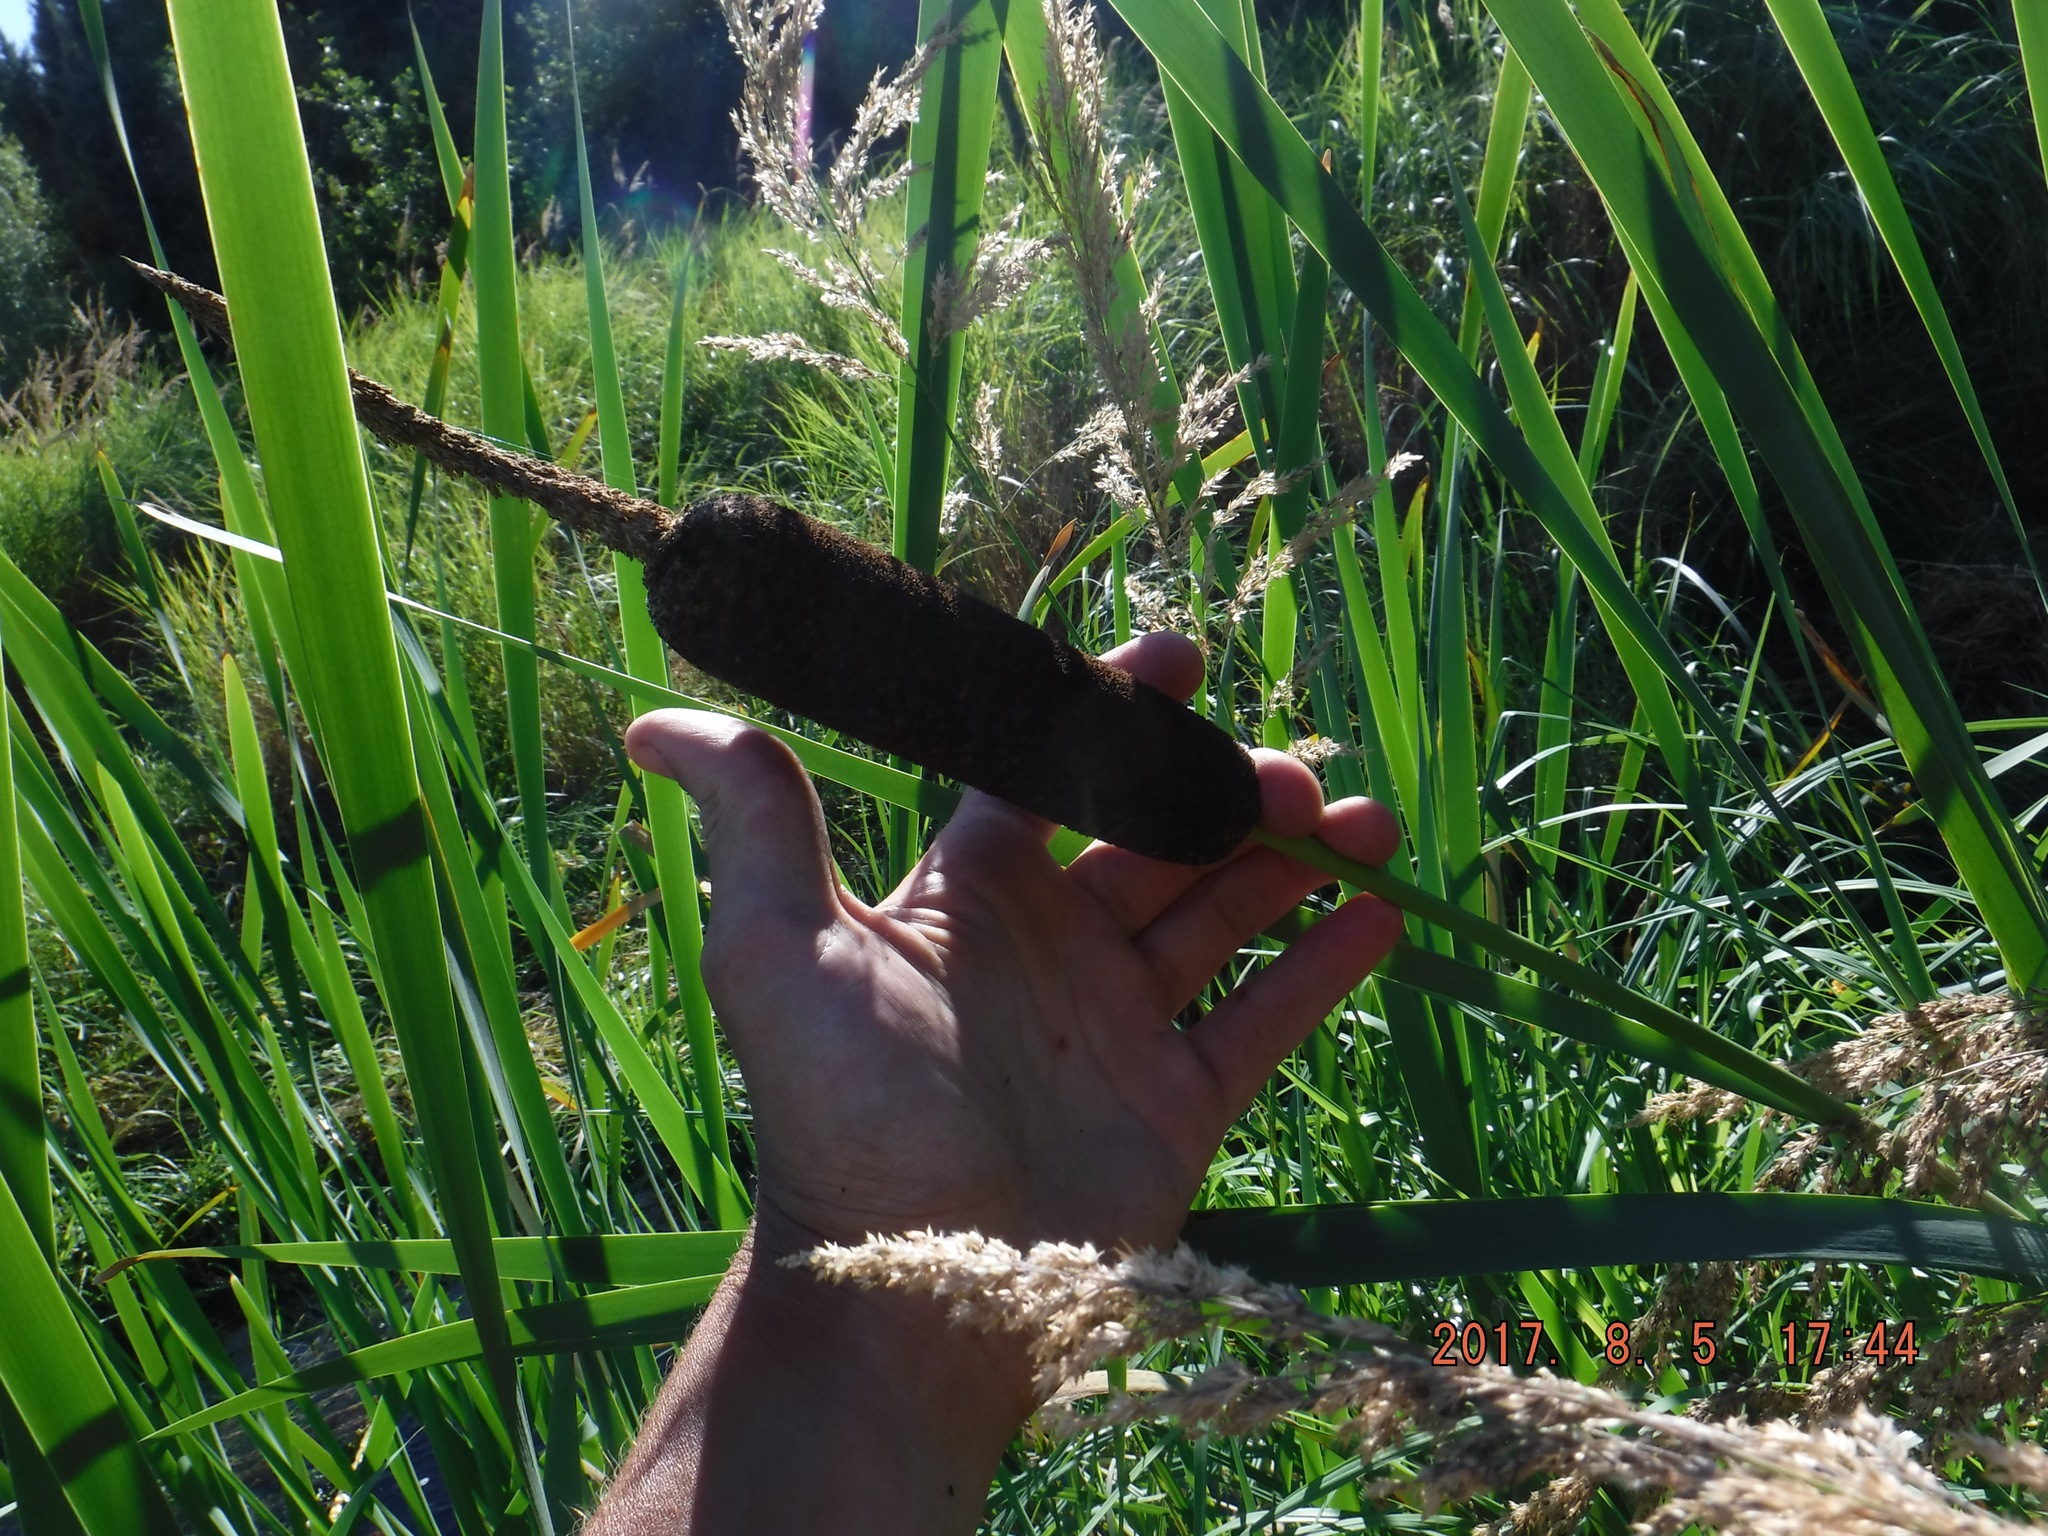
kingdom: Plantae
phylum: Tracheophyta
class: Liliopsida
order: Poales
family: Typhaceae
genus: Typha
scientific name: Typha latifolia
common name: Broadleaf cattail
